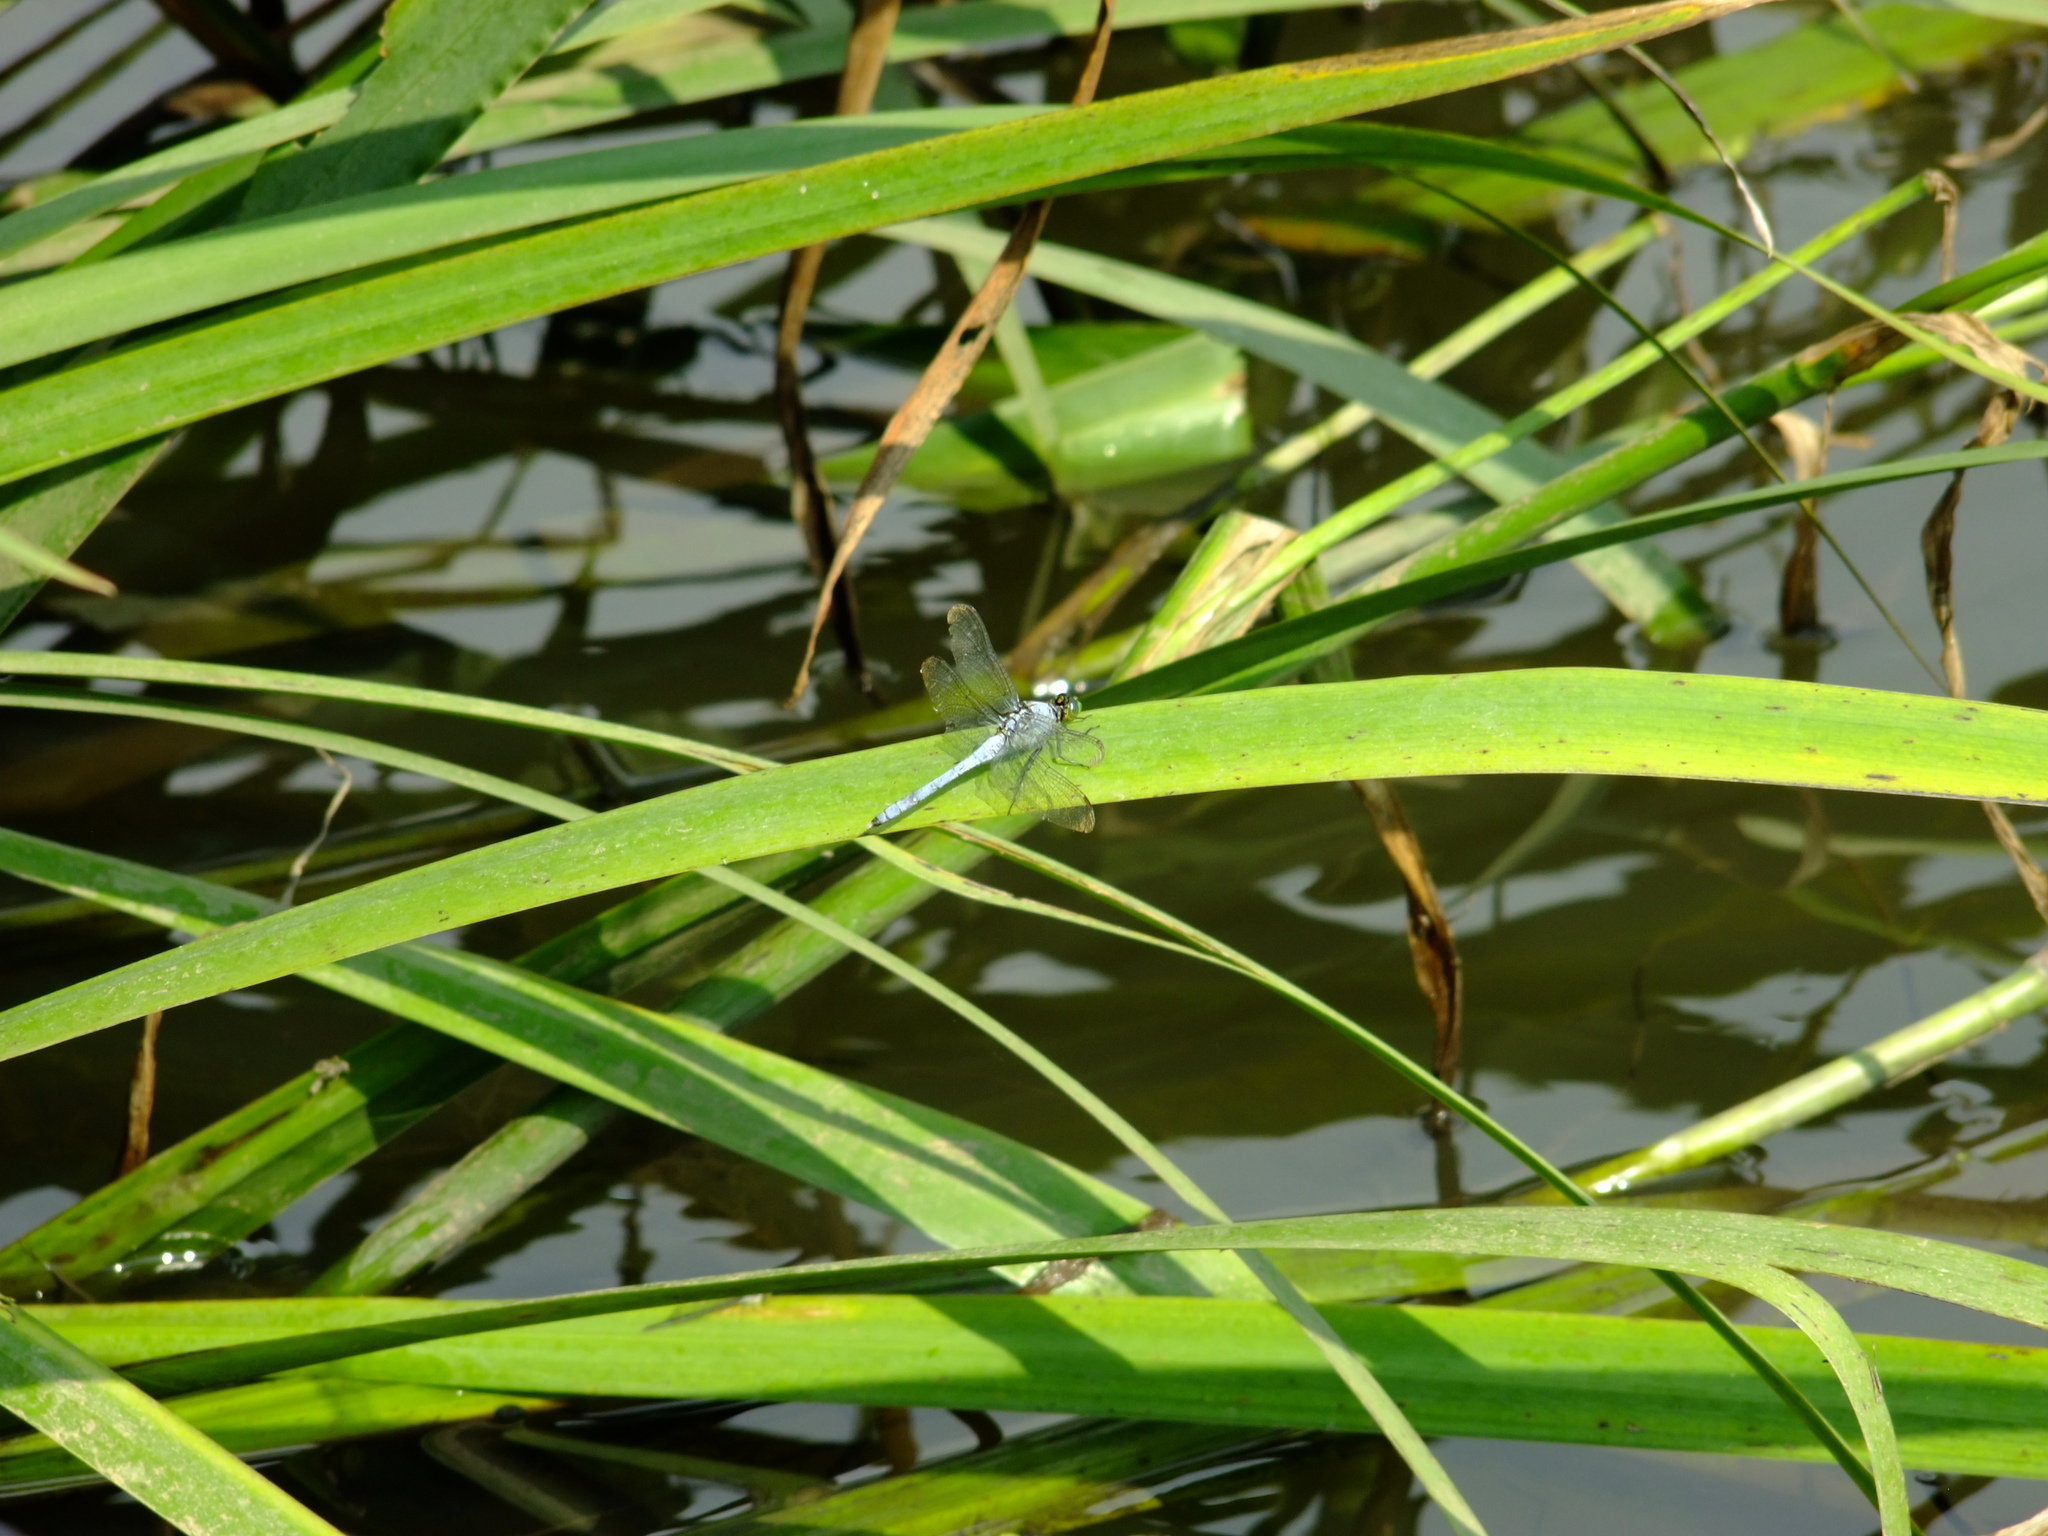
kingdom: Animalia
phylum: Arthropoda
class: Insecta
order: Odonata
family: Libellulidae
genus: Erythemis
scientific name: Erythemis simplicicollis
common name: Eastern pondhawk
